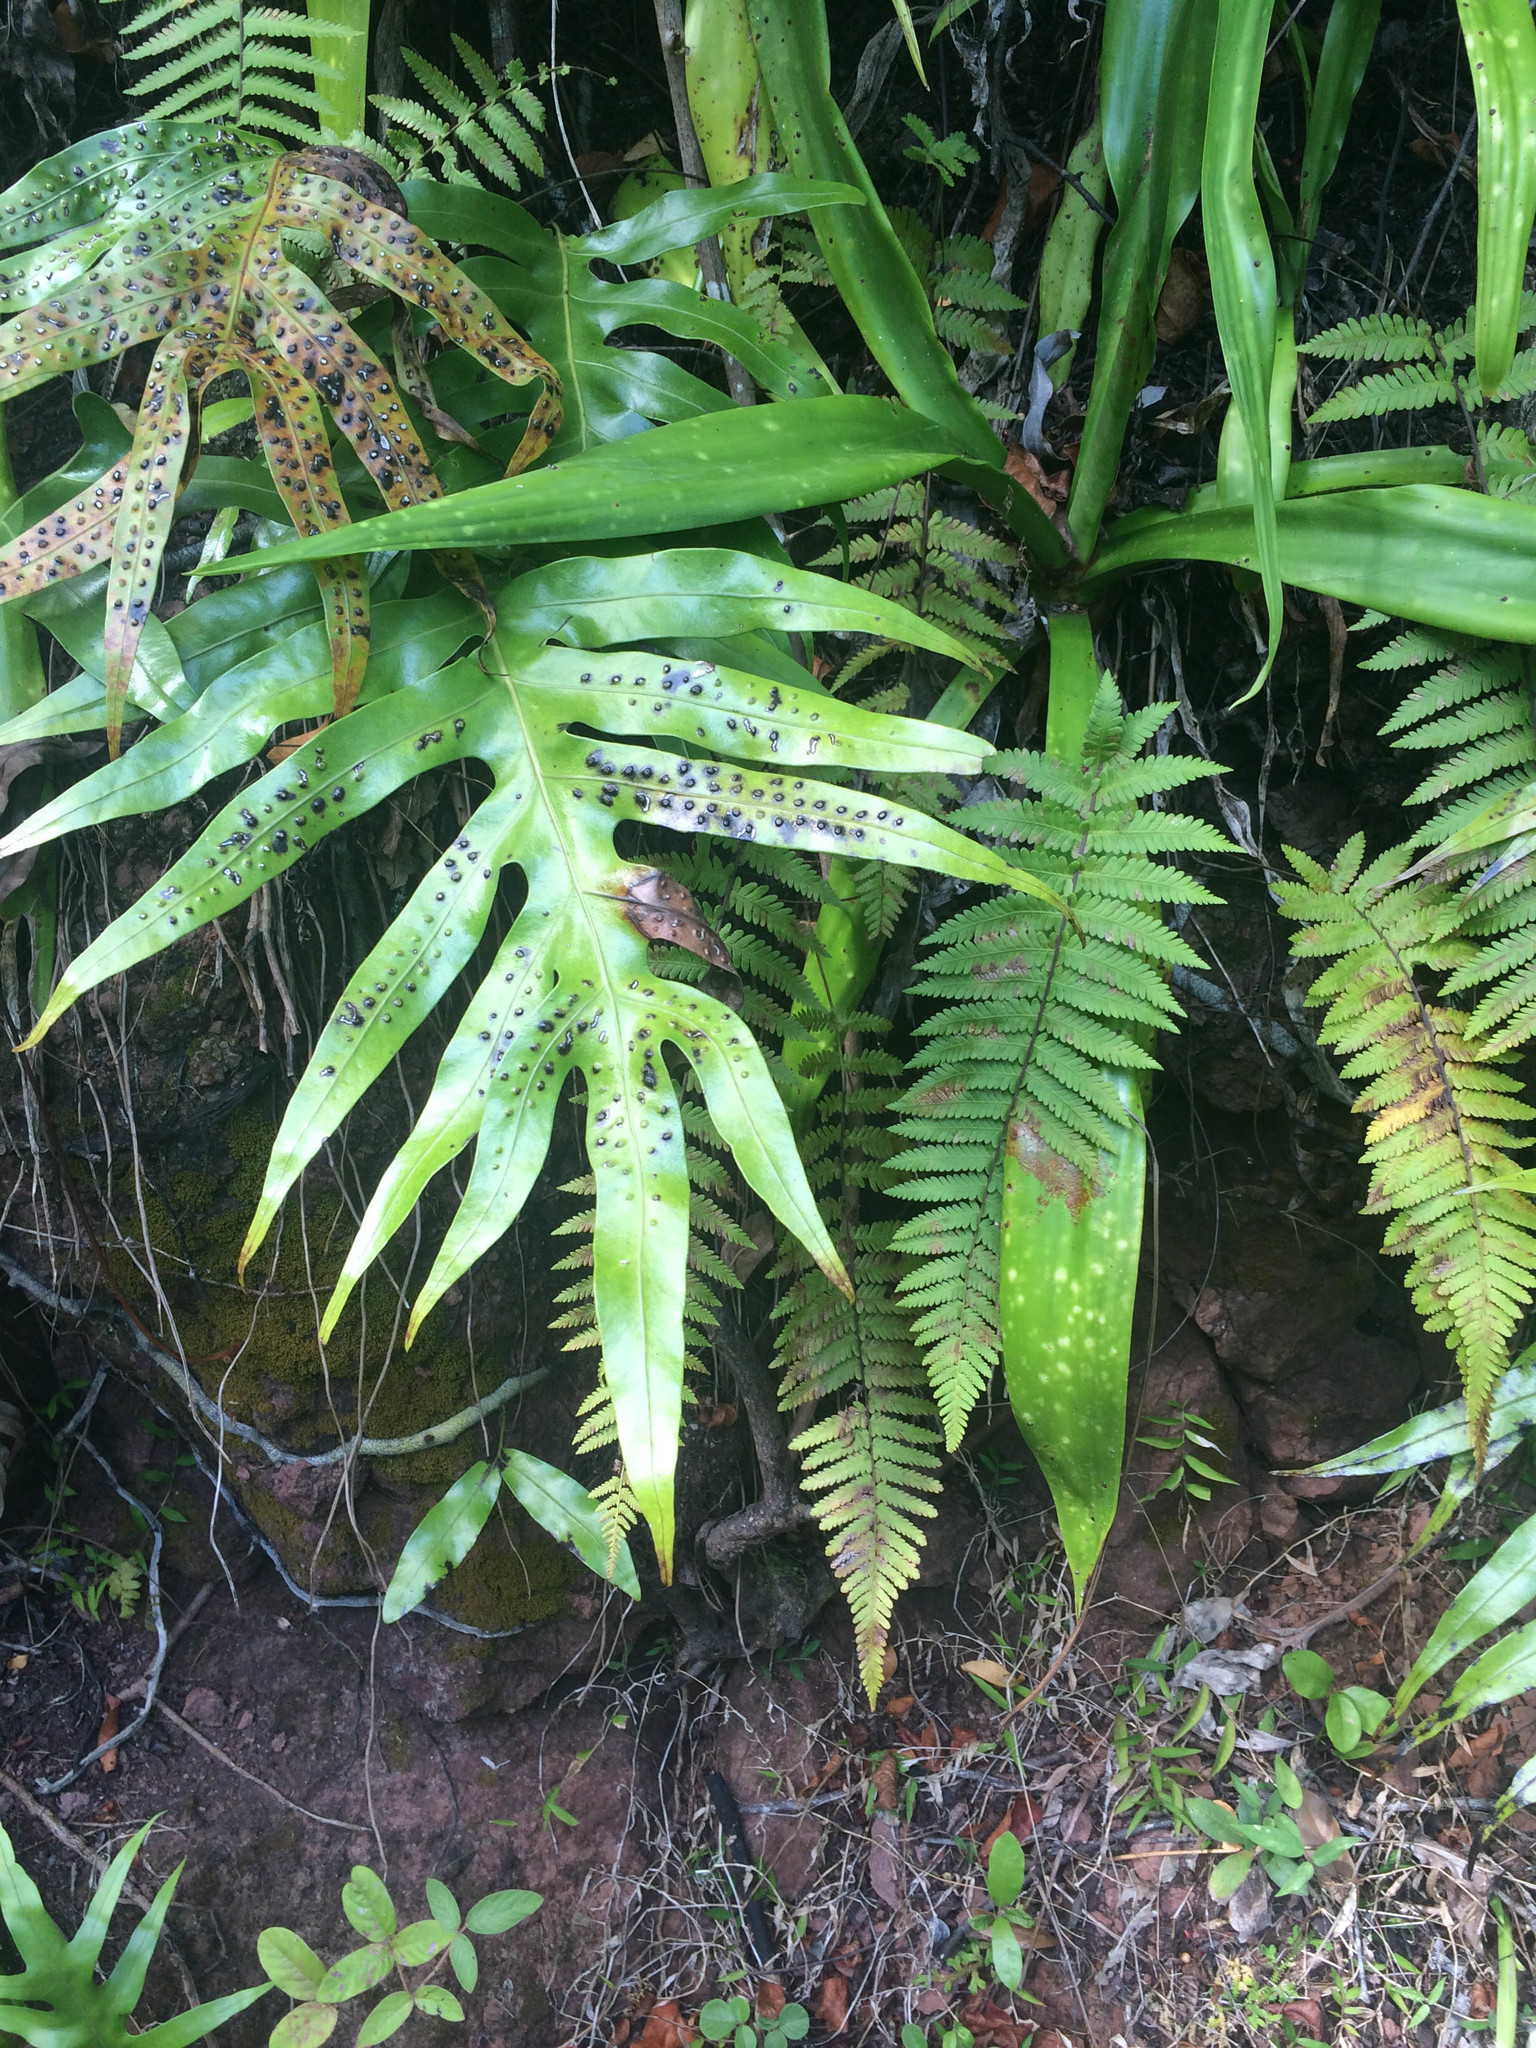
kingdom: Plantae
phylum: Tracheophyta
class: Polypodiopsida
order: Polypodiales
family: Polypodiaceae
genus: Microsorum
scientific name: Microsorum scolopendria
